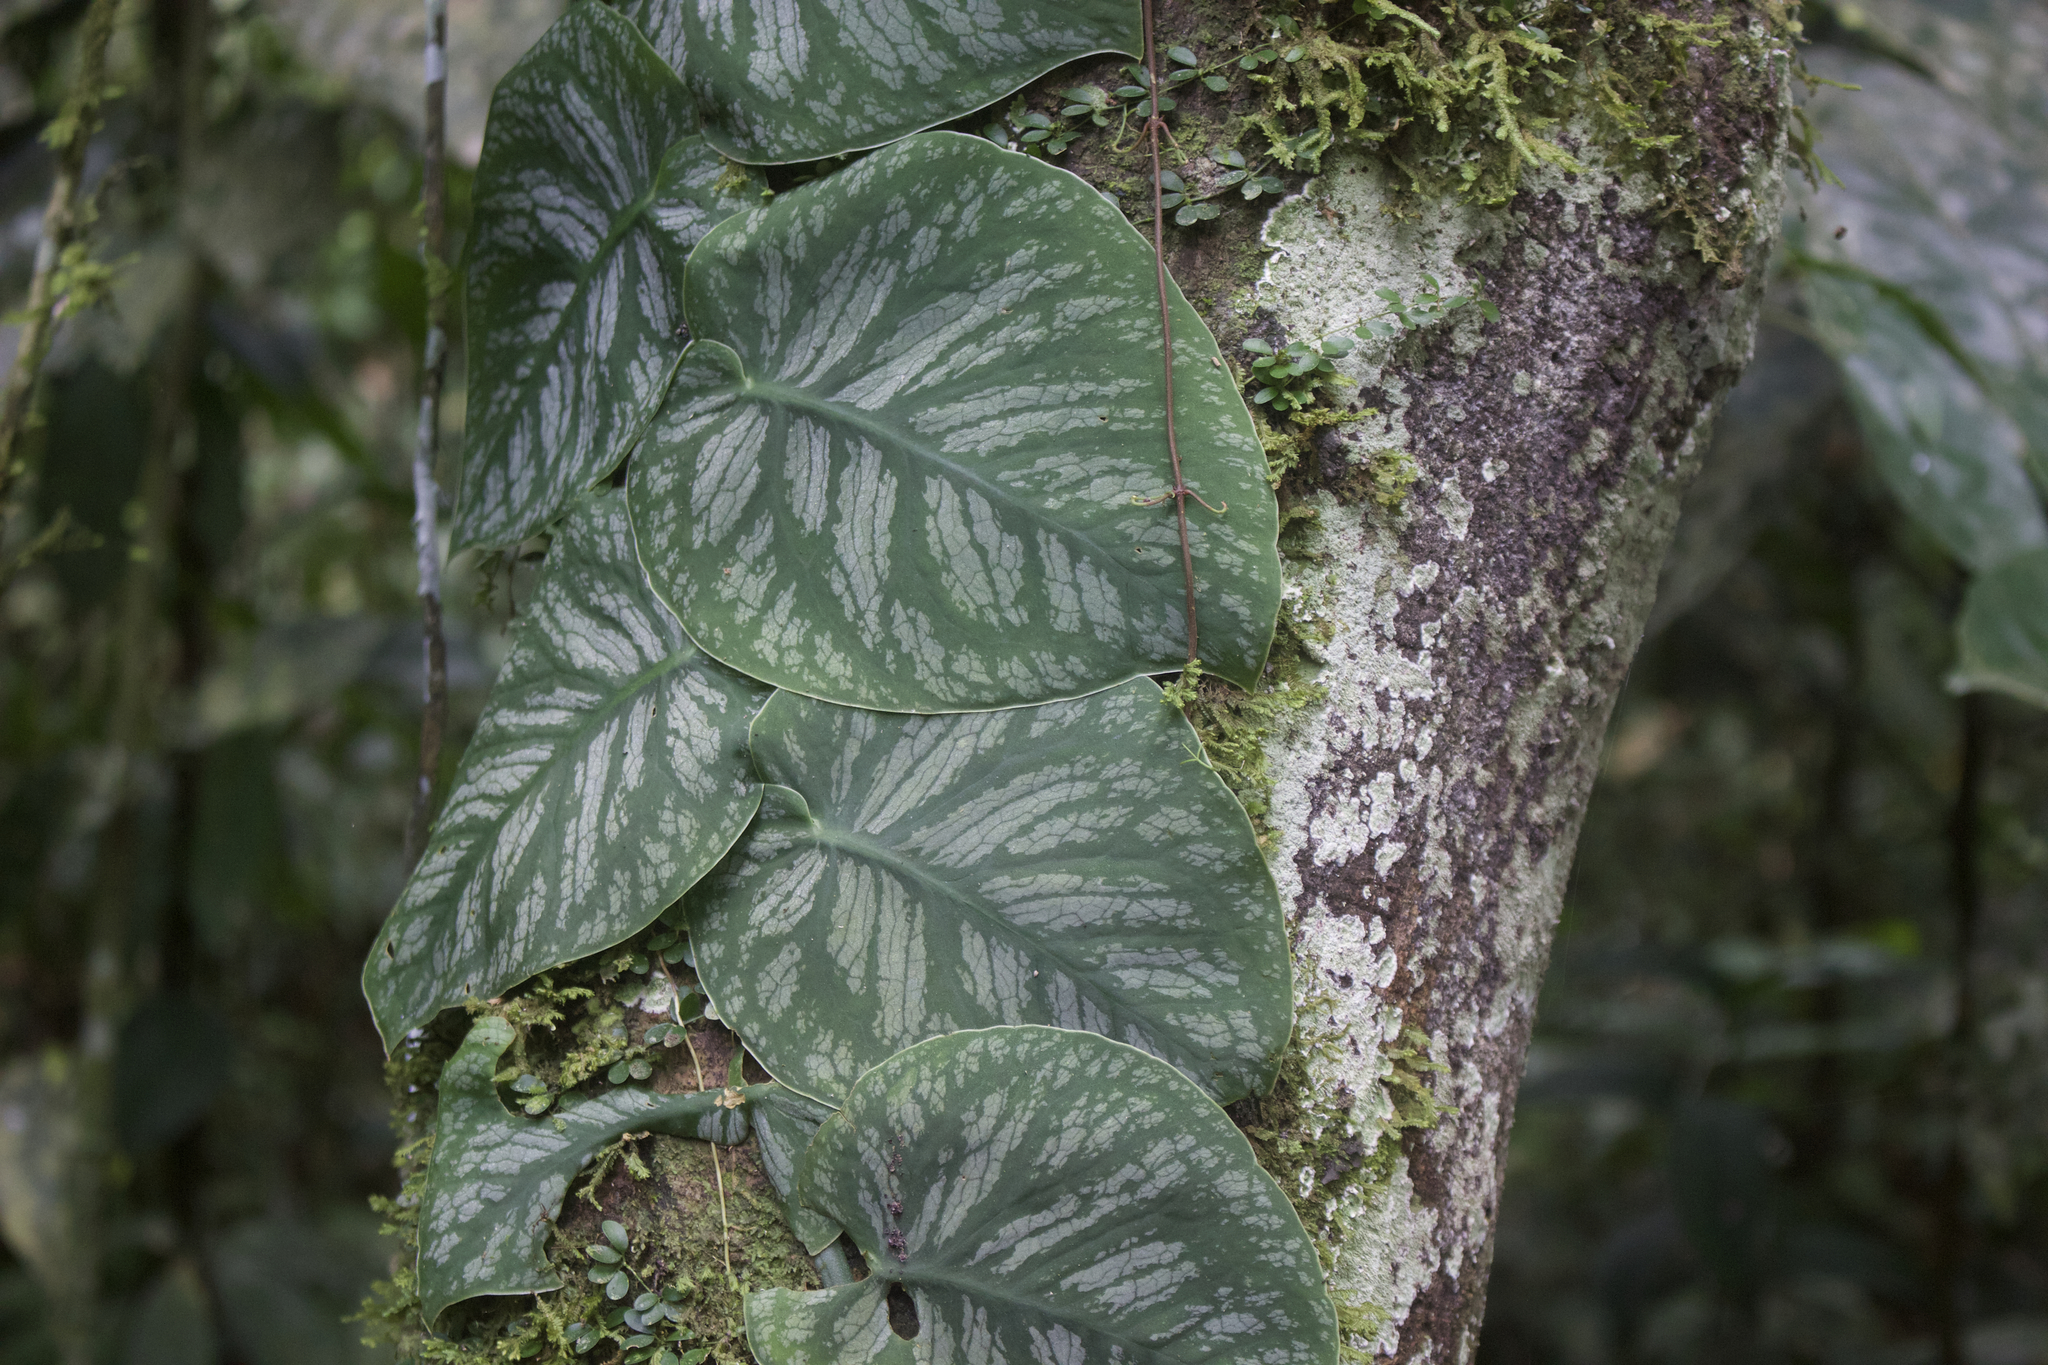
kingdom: Plantae
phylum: Tracheophyta
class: Liliopsida
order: Alismatales
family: Araceae
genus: Monstera
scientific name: Monstera dubia
